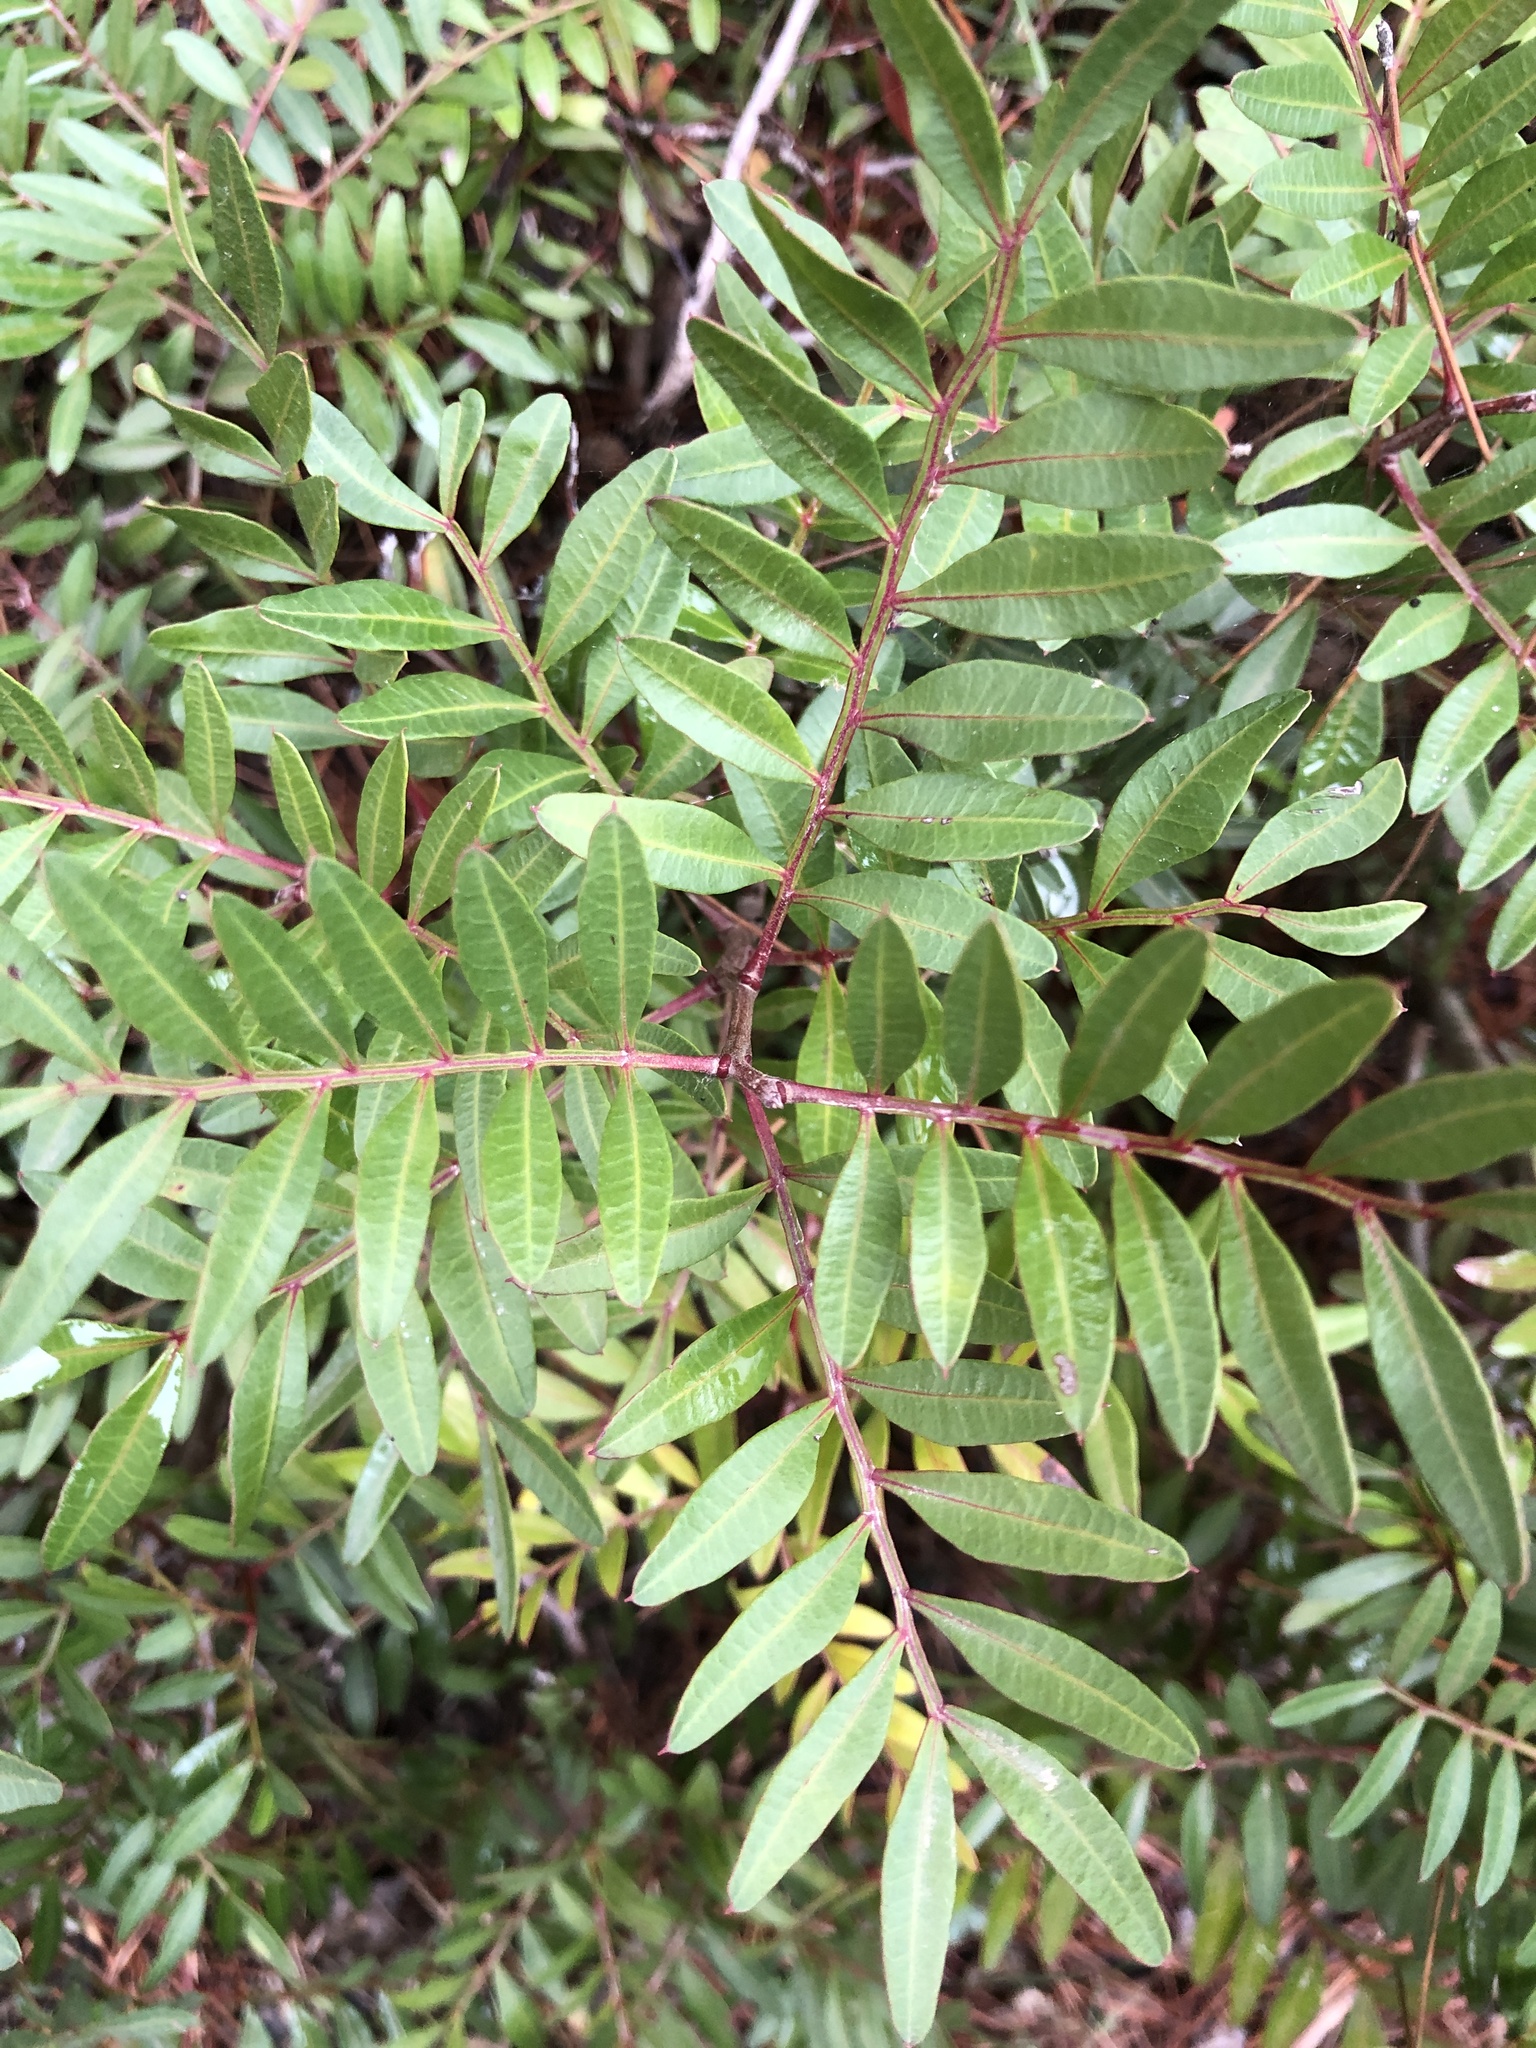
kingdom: Plantae
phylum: Tracheophyta
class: Magnoliopsida
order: Sapindales
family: Anacardiaceae
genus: Pistacia
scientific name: Pistacia lentiscus
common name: Lentisk
